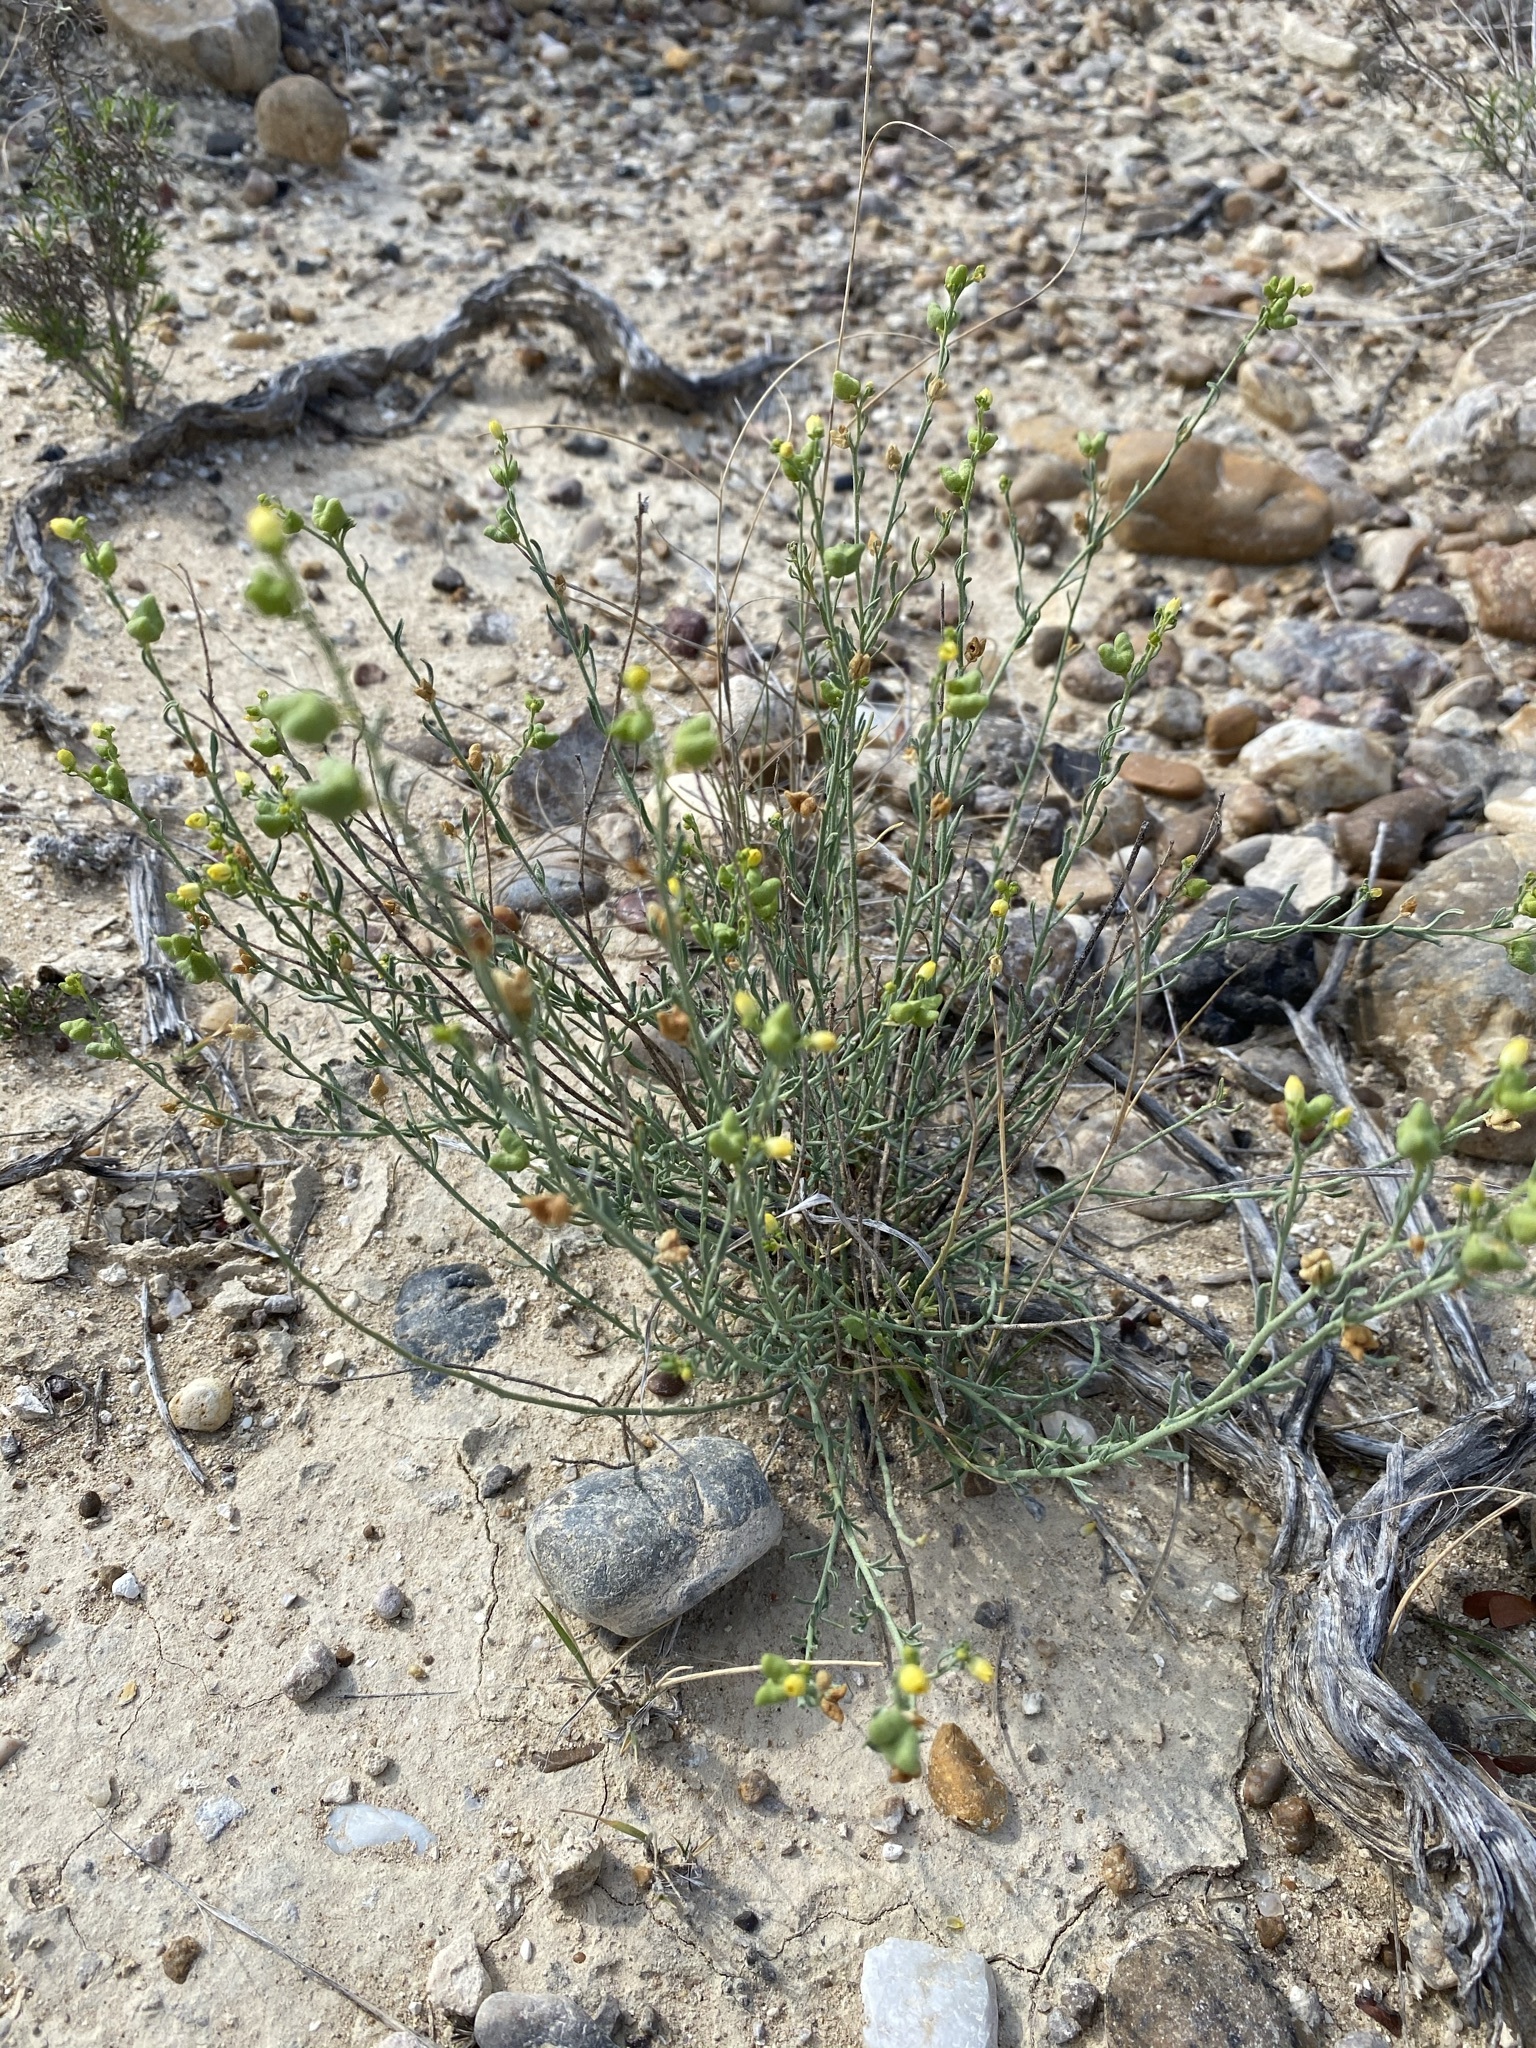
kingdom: Plantae
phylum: Tracheophyta
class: Magnoliopsida
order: Sapindales
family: Rutaceae
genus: Thamnosma
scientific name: Thamnosma texana
